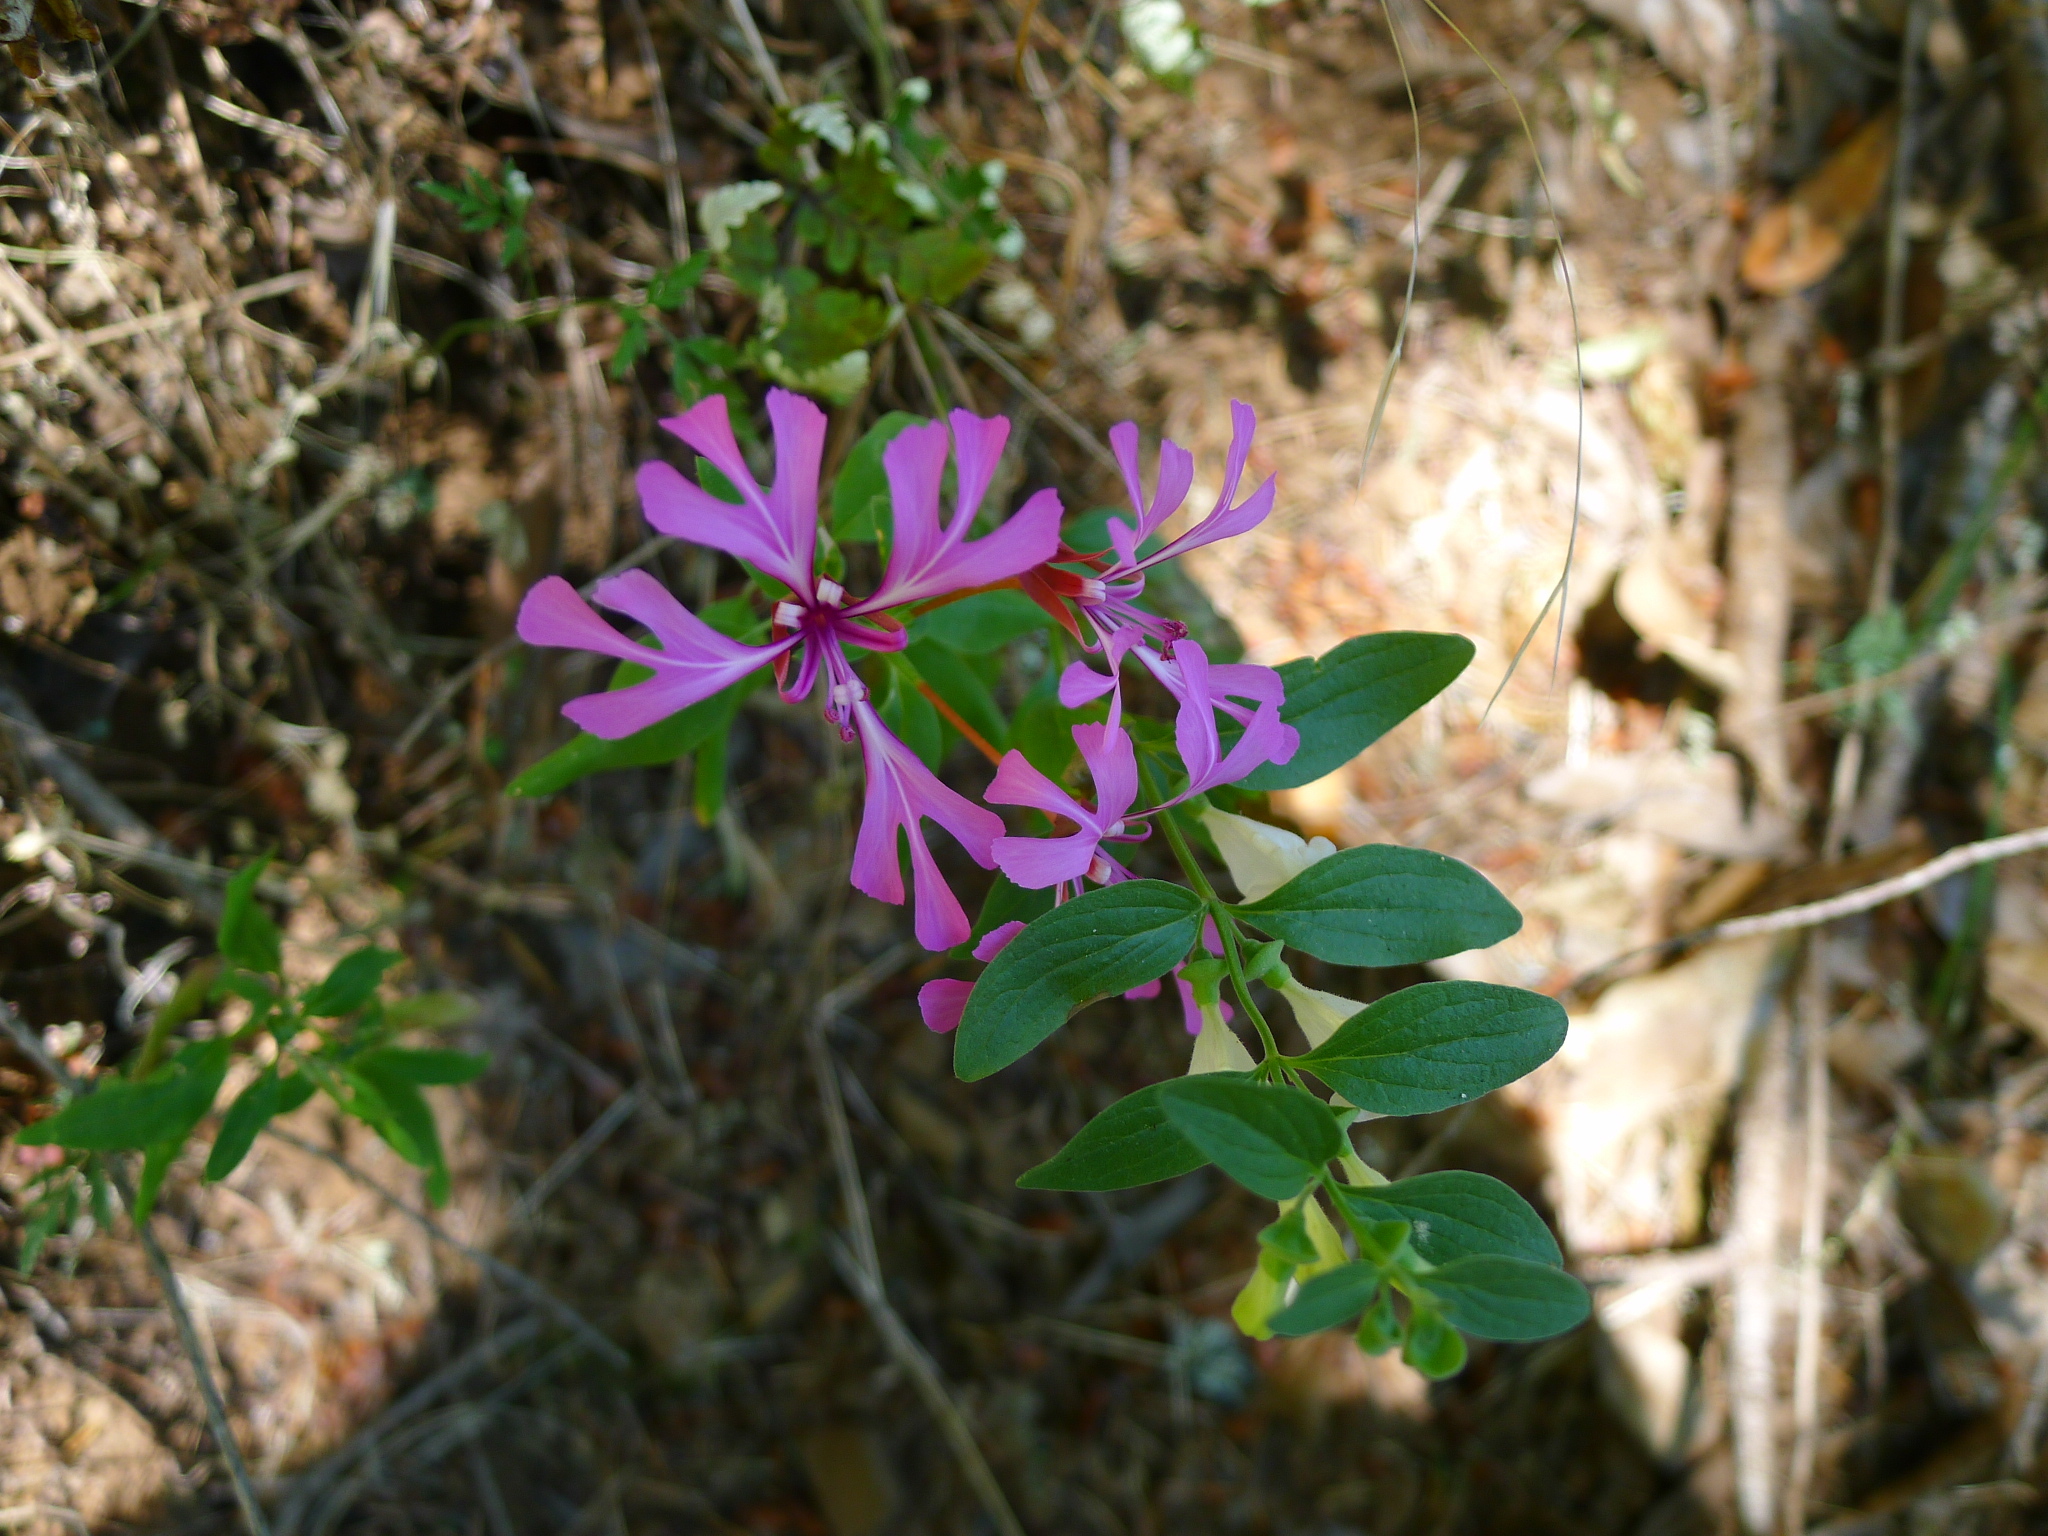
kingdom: Plantae
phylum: Tracheophyta
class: Magnoliopsida
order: Myrtales
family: Onagraceae
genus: Clarkia
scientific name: Clarkia concinna
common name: Red-ribbons
